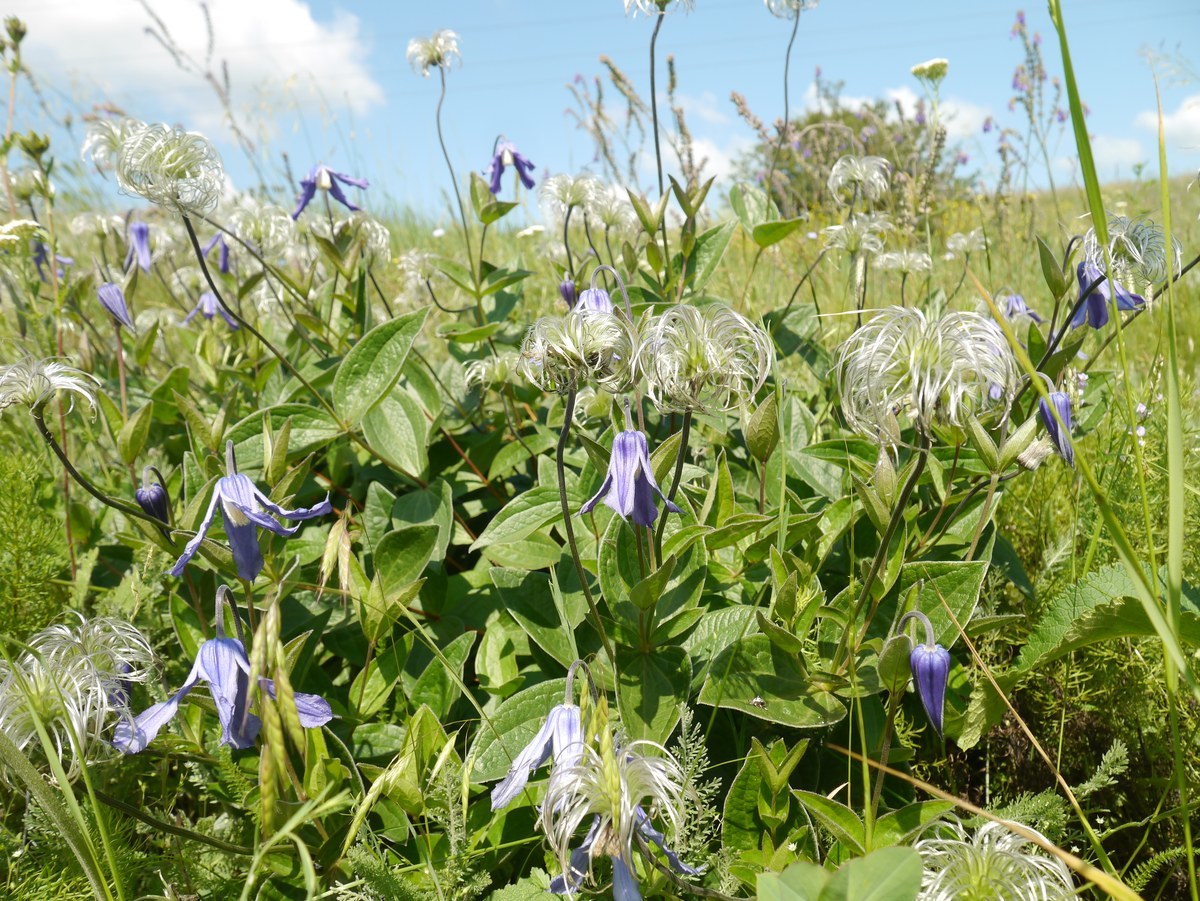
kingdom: Plantae
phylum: Tracheophyta
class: Magnoliopsida
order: Ranunculales
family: Ranunculaceae
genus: Clematis
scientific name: Clematis integrifolia
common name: Solitary clematis
